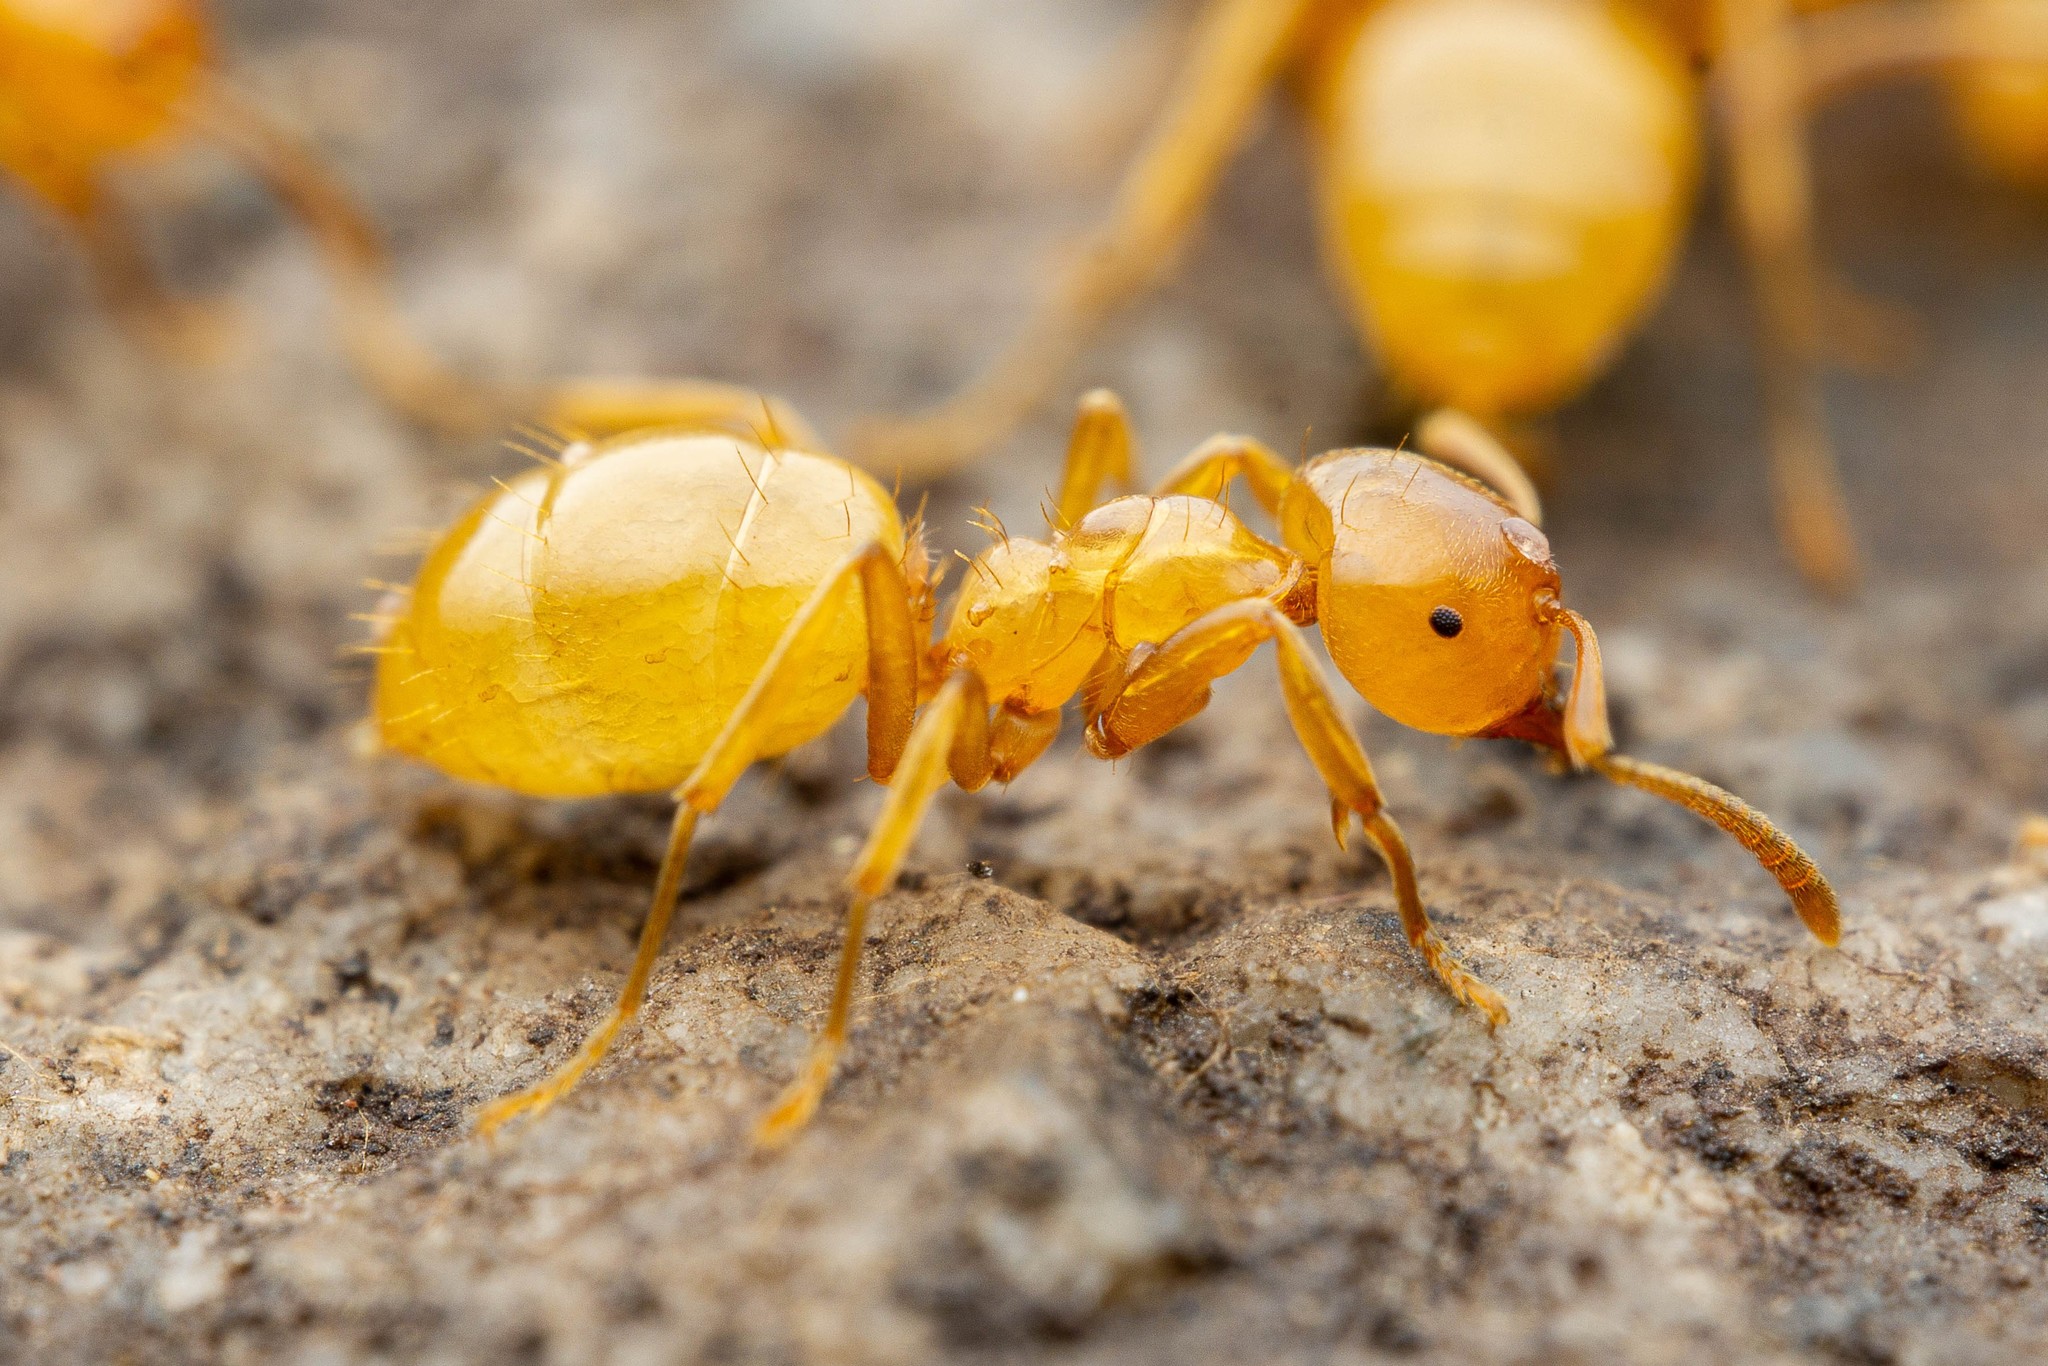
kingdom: Animalia
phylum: Arthropoda
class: Insecta
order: Hymenoptera
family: Formicidae
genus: Lasius
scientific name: Lasius arizonicus
